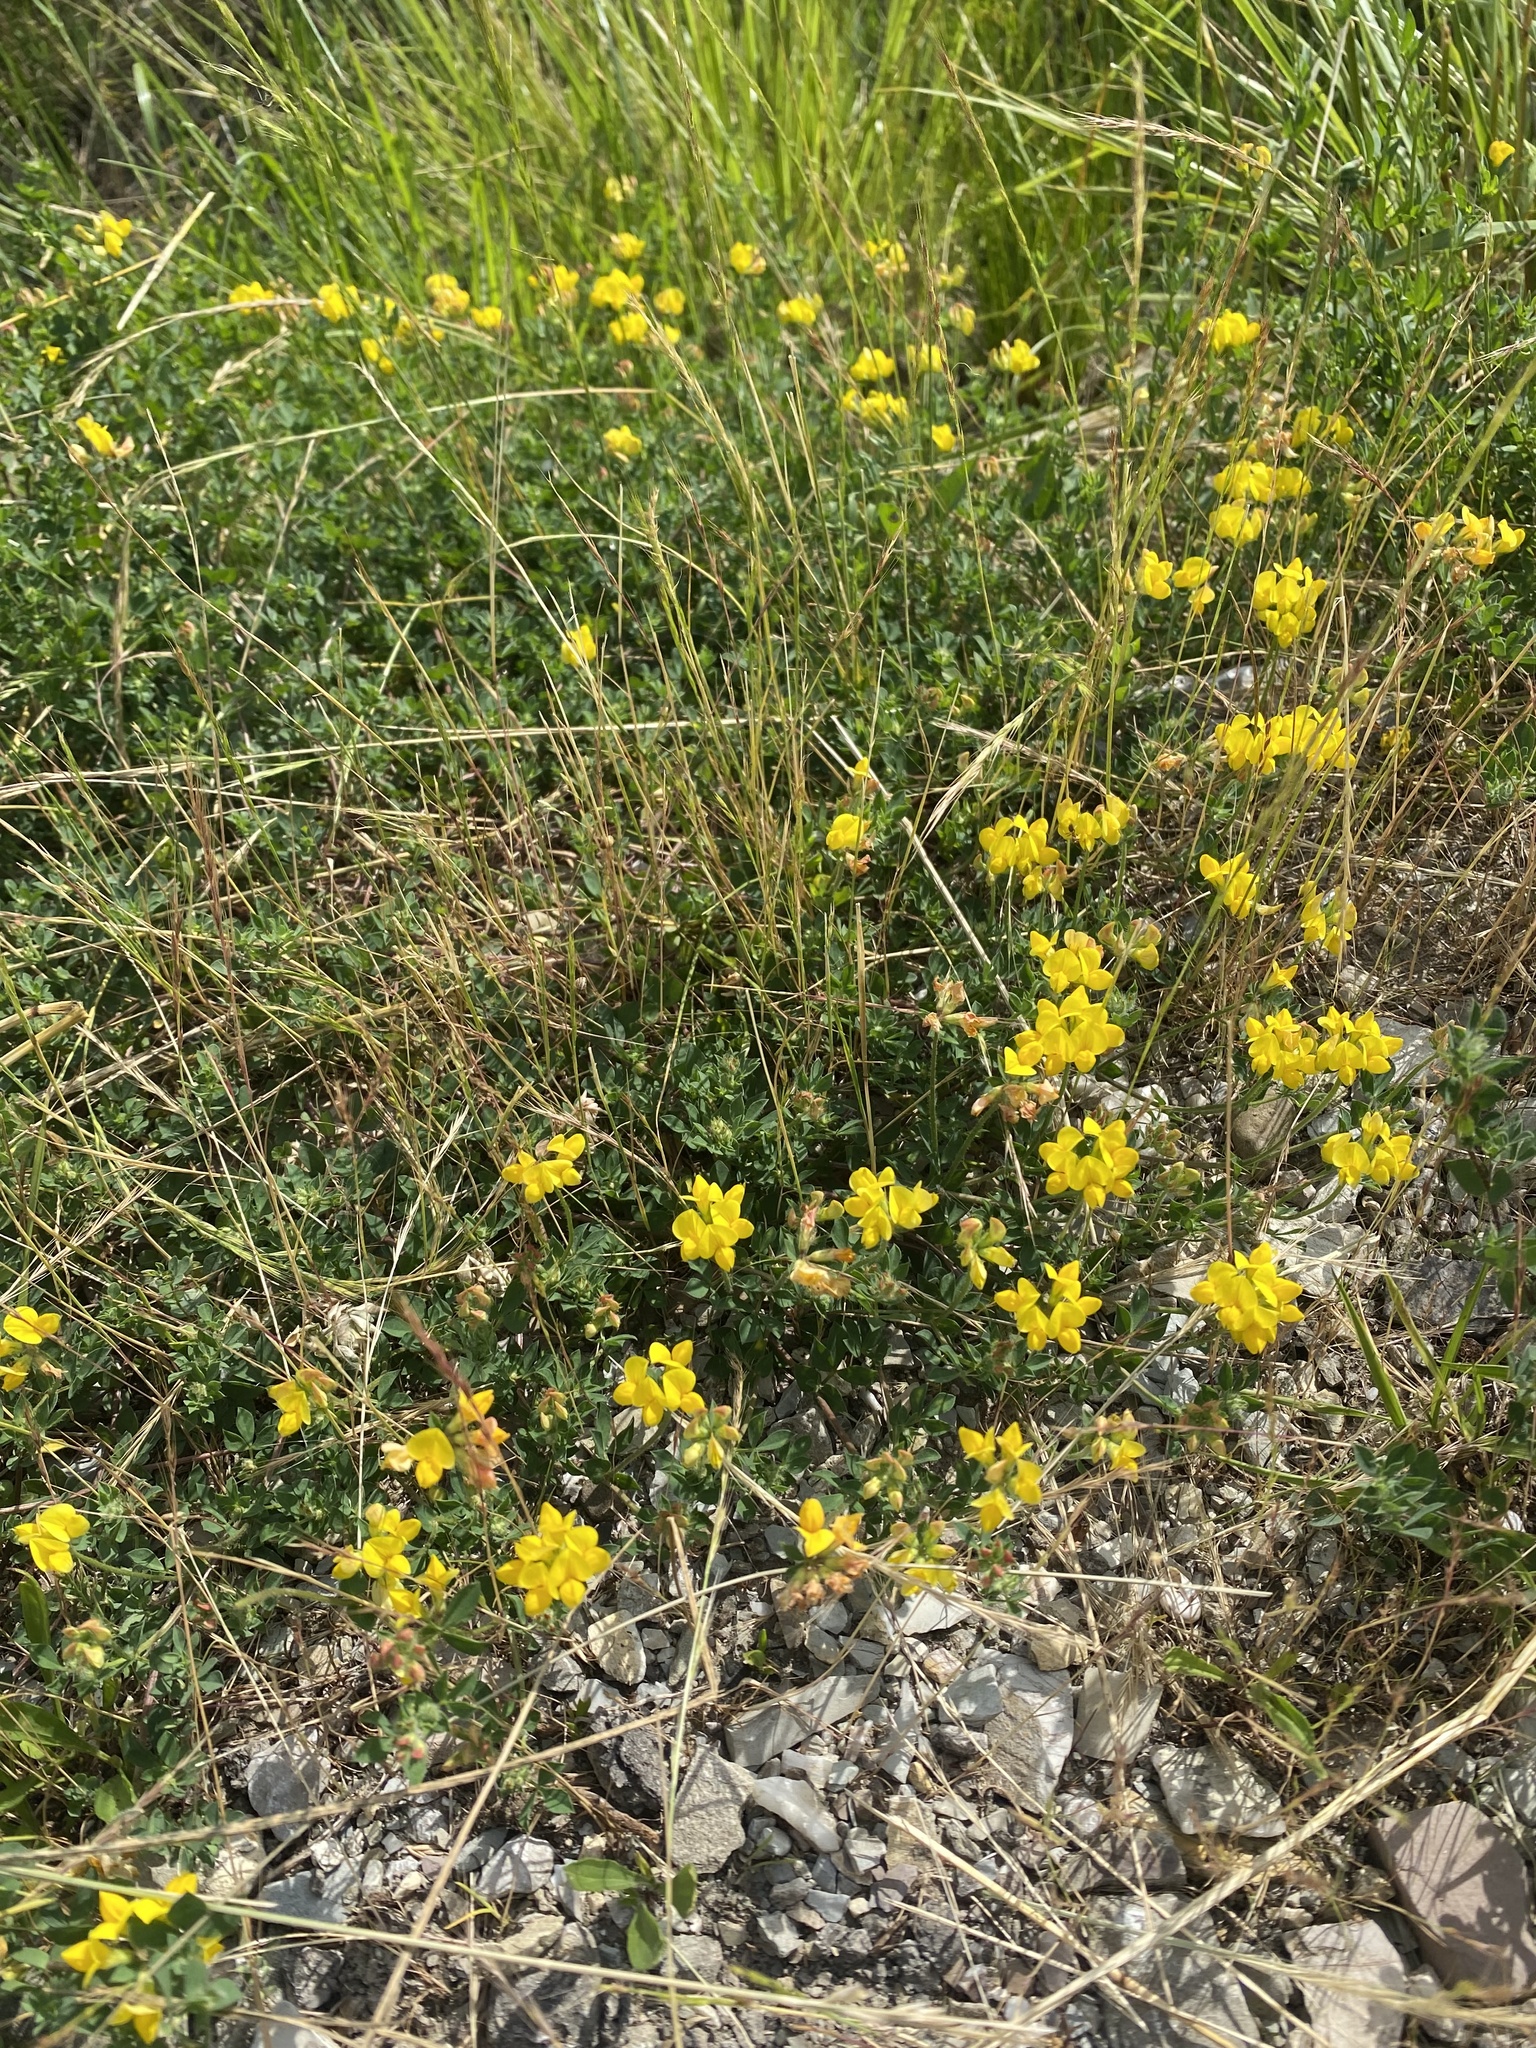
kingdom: Plantae
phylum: Tracheophyta
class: Magnoliopsida
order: Fabales
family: Fabaceae
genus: Lotus
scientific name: Lotus corniculatus
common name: Common bird's-foot-trefoil
